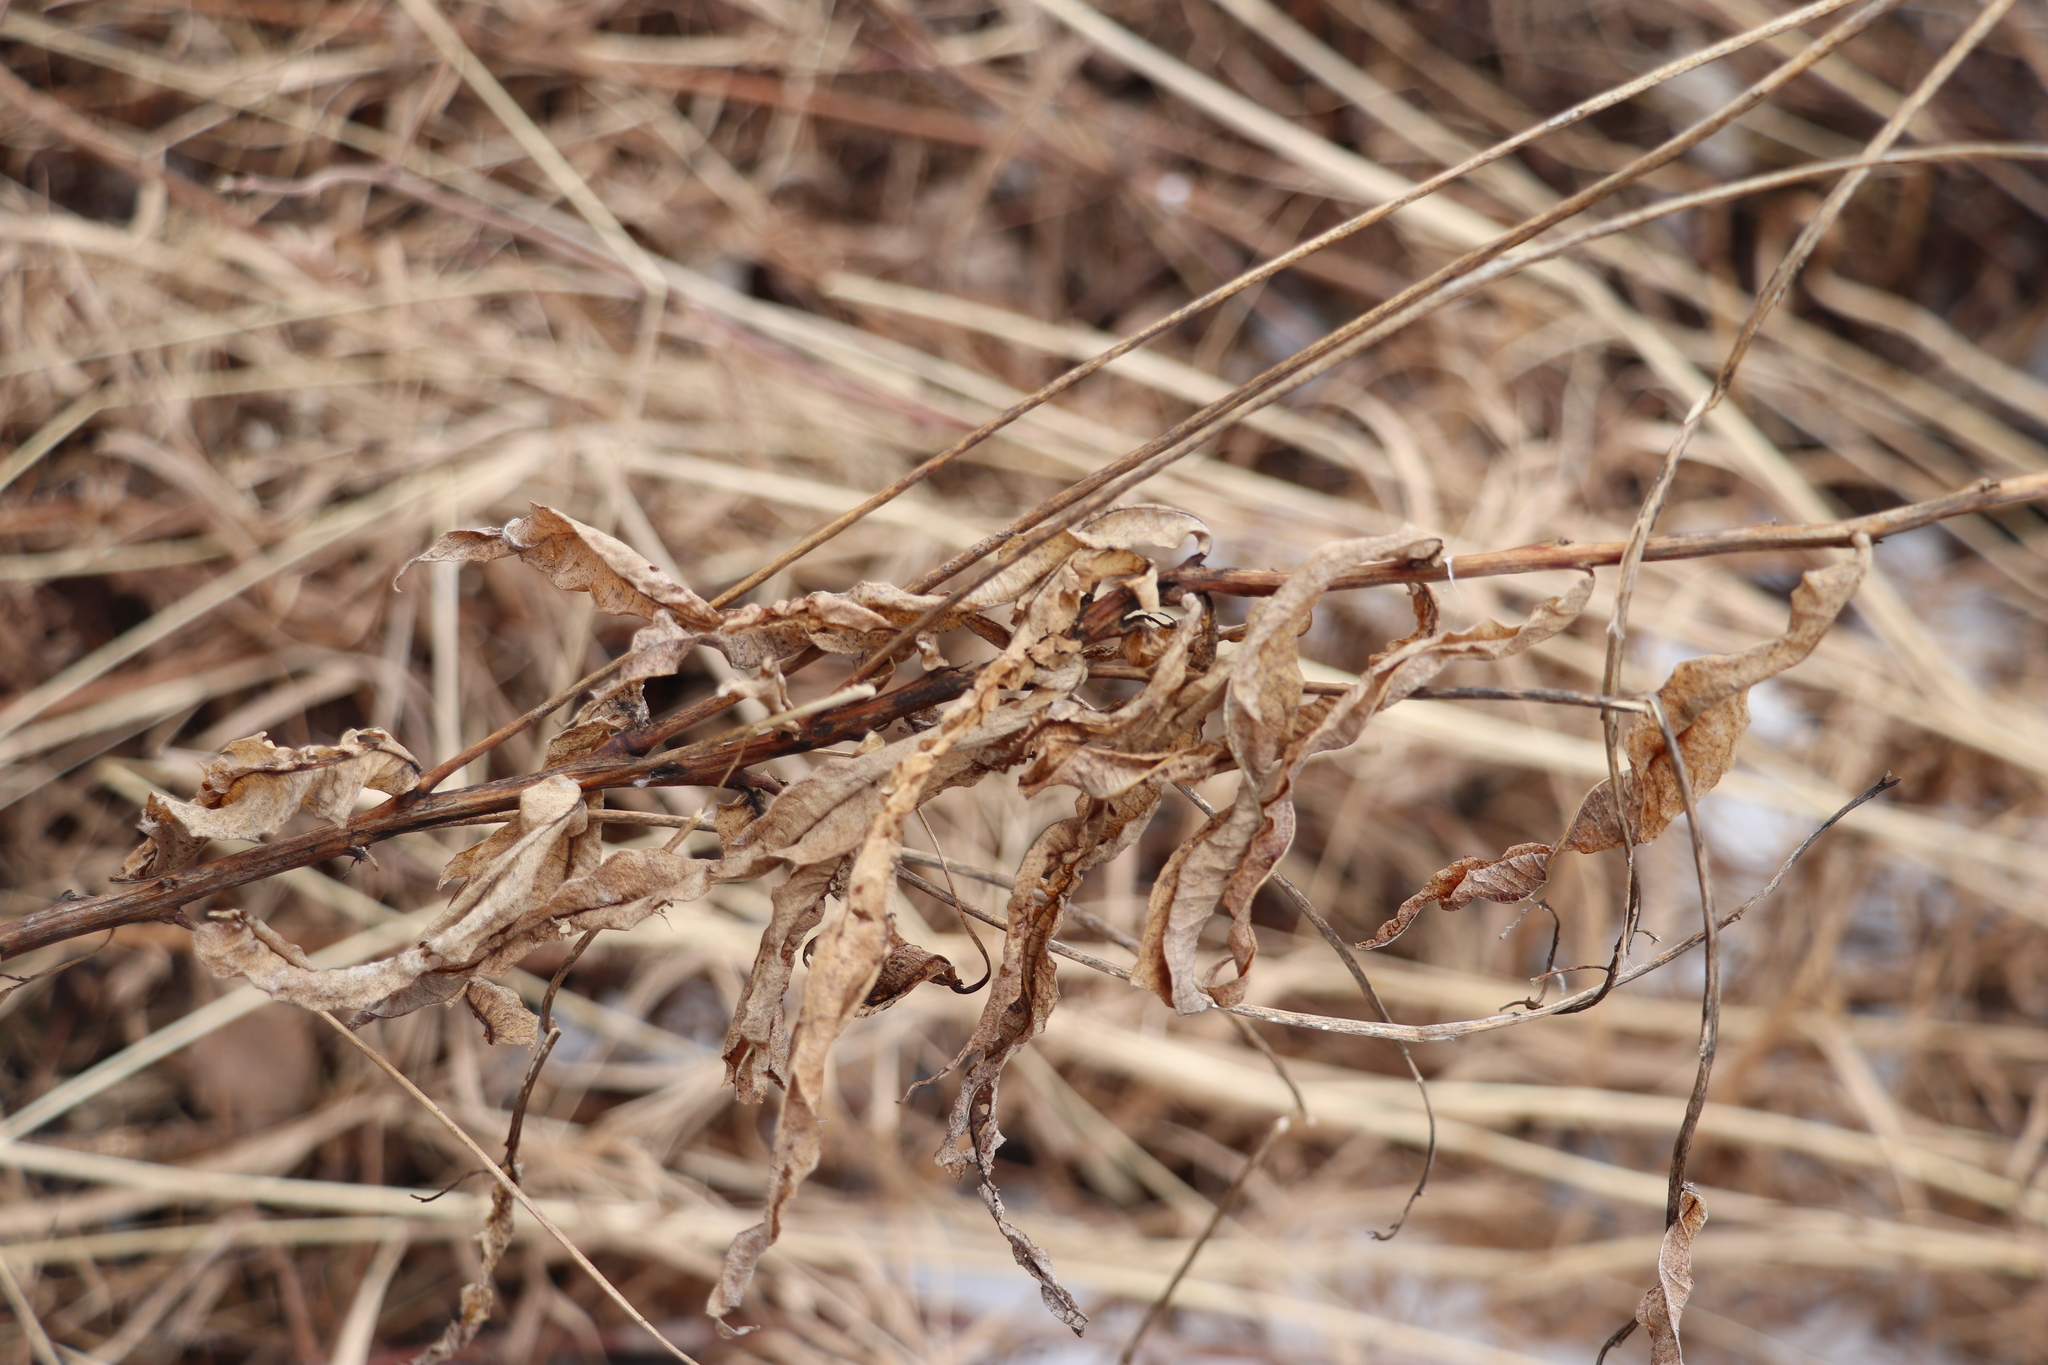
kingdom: Plantae
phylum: Tracheophyta
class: Magnoliopsida
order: Myrtales
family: Onagraceae
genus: Chamaenerion
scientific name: Chamaenerion angustifolium
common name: Fireweed
